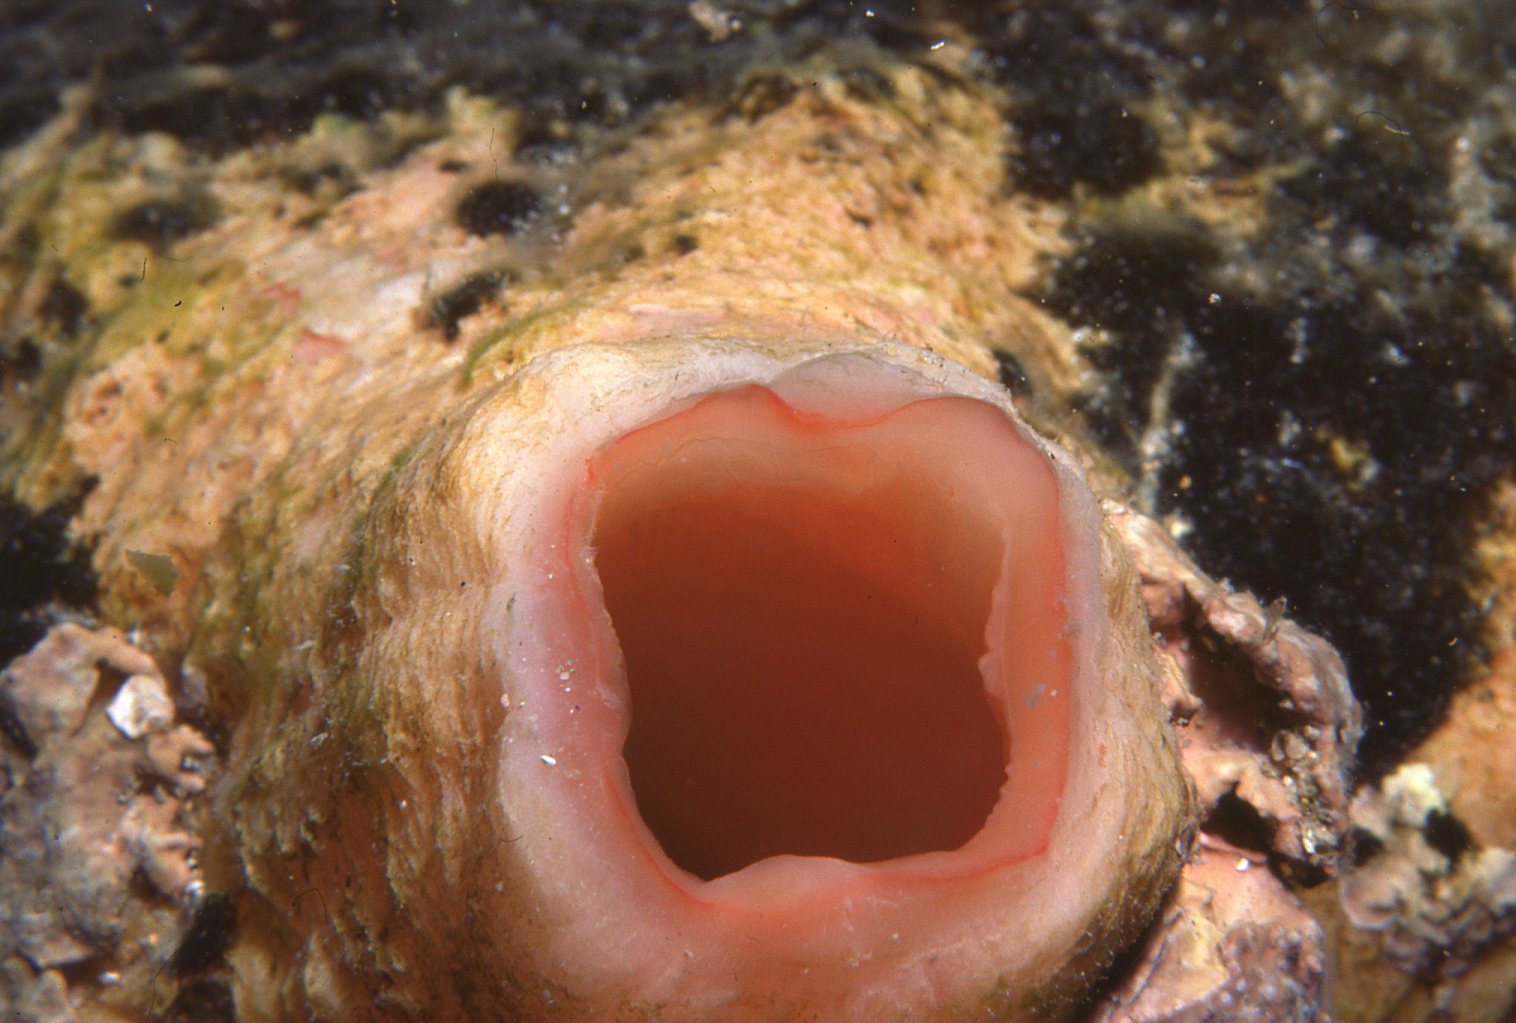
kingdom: Animalia
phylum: Chordata
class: Ascidiacea
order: Stolidobranchia
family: Pyuridae
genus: Herdmania
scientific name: Herdmania grandis
